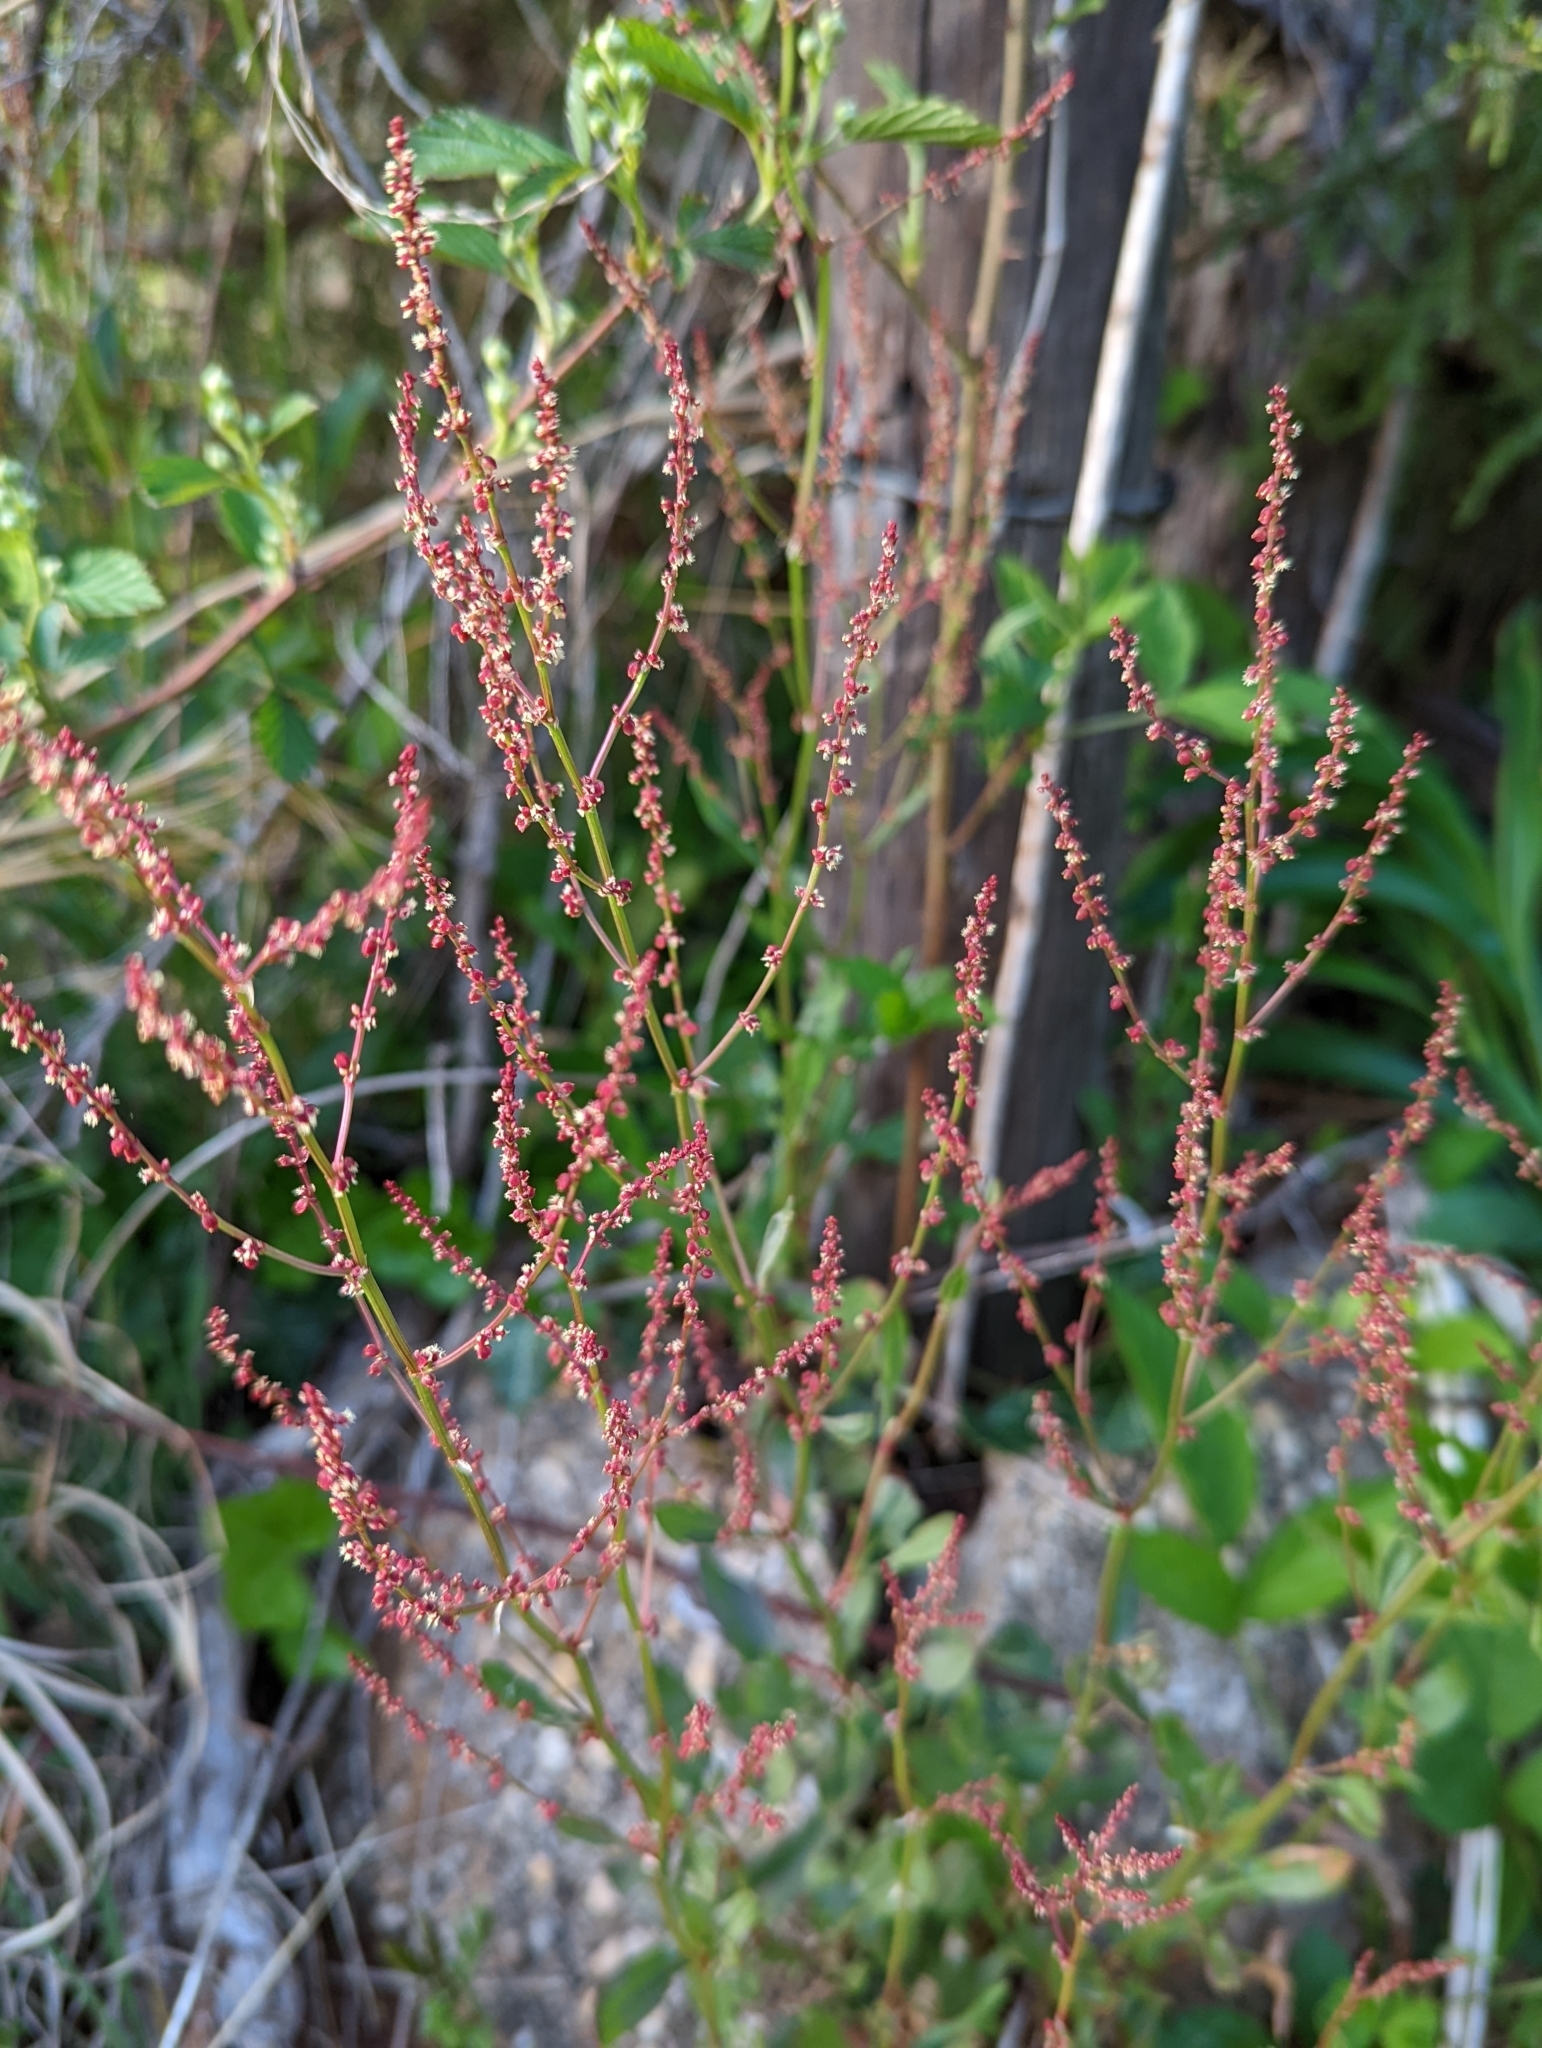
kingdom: Plantae
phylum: Tracheophyta
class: Magnoliopsida
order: Caryophyllales
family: Polygonaceae
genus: Rumex
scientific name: Rumex acetosella
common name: Common sheep sorrel
